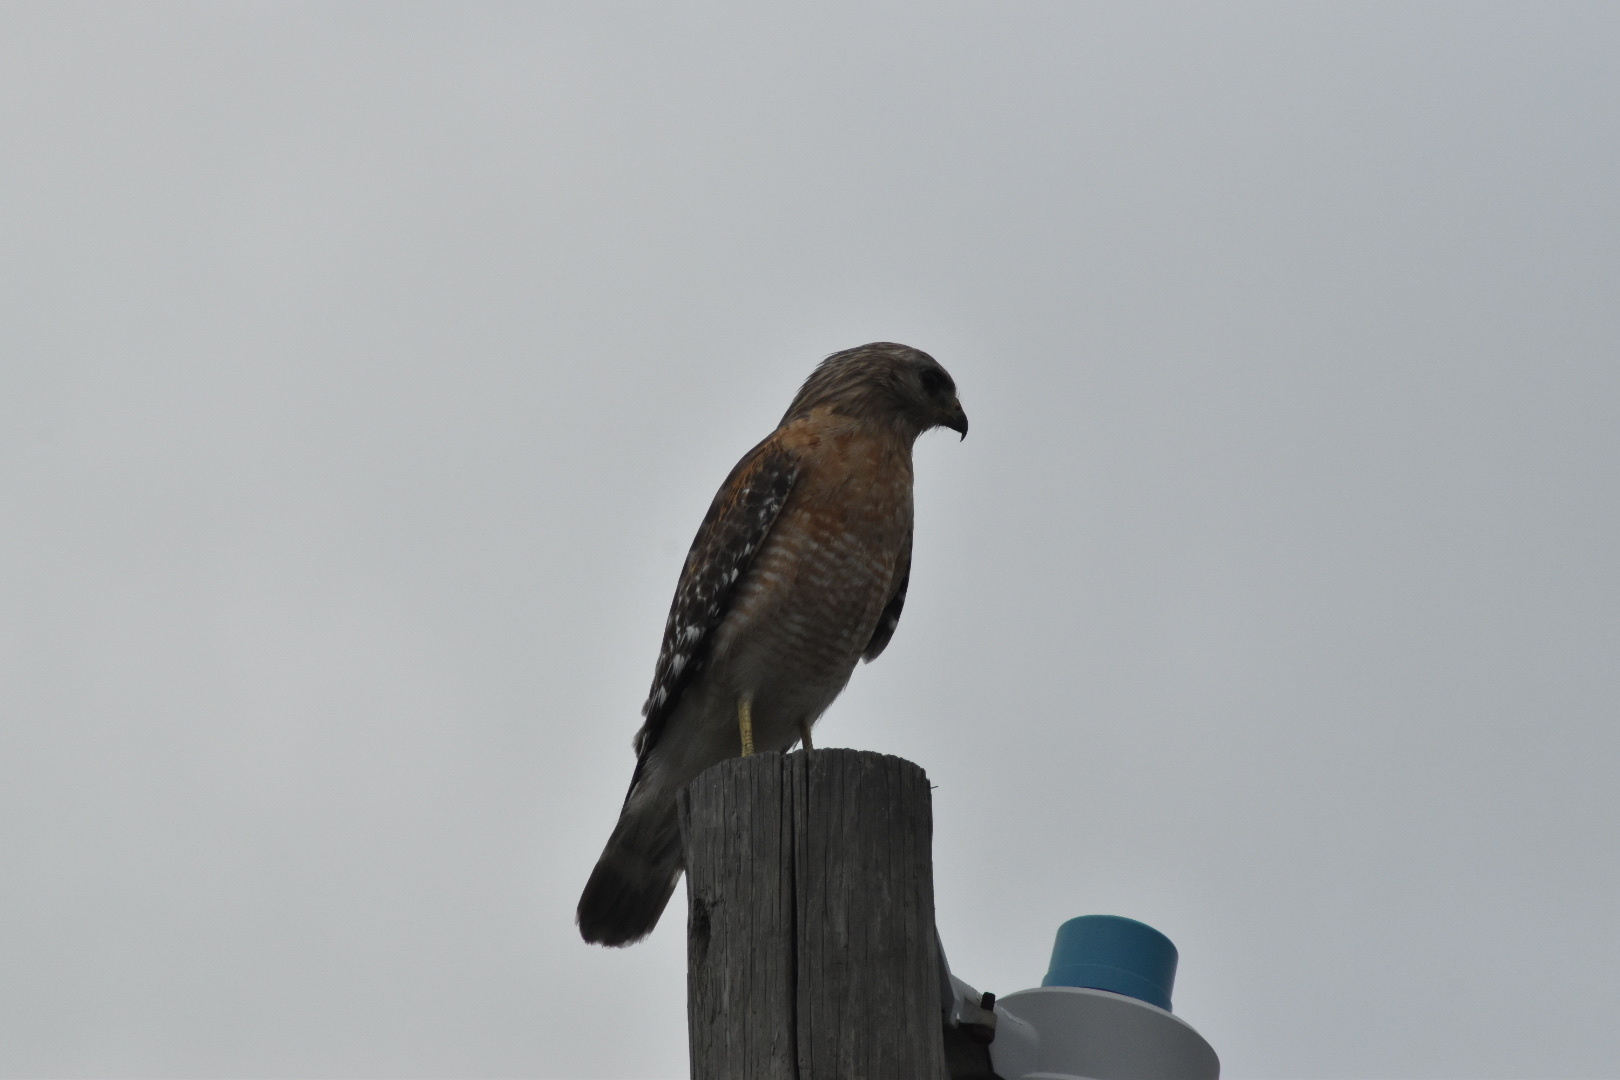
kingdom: Animalia
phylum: Chordata
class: Aves
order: Accipitriformes
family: Accipitridae
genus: Buteo
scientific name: Buteo lineatus
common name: Red-shouldered hawk
